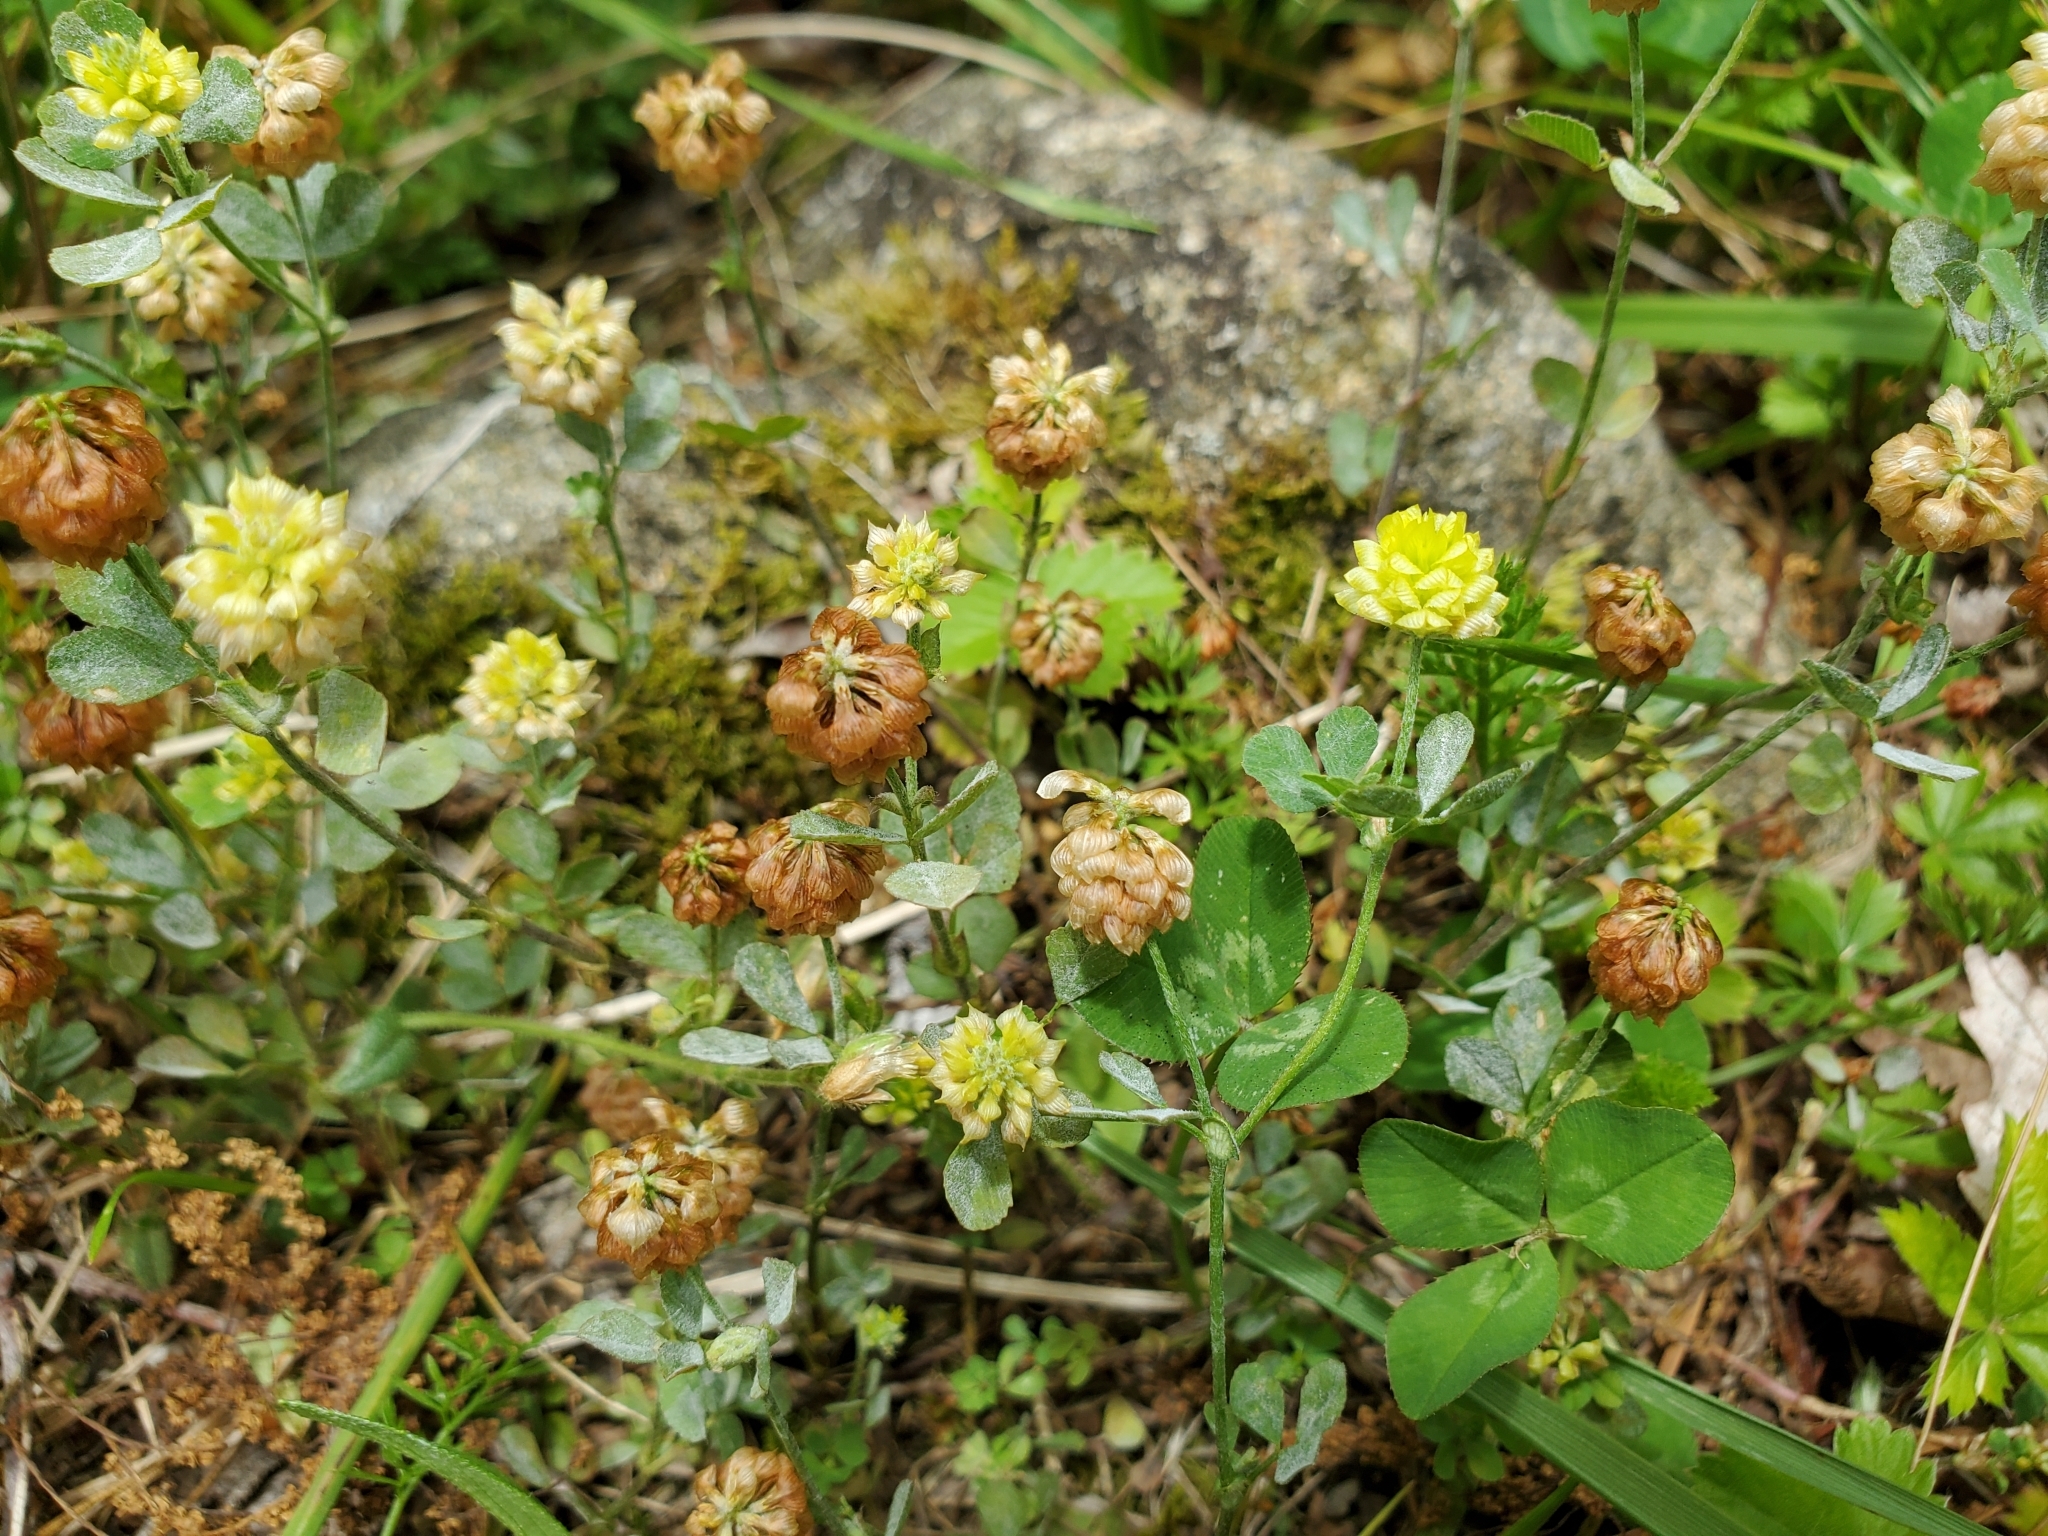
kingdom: Plantae
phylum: Tracheophyta
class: Magnoliopsida
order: Fabales
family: Fabaceae
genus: Trifolium
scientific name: Trifolium campestre
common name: Field clover
